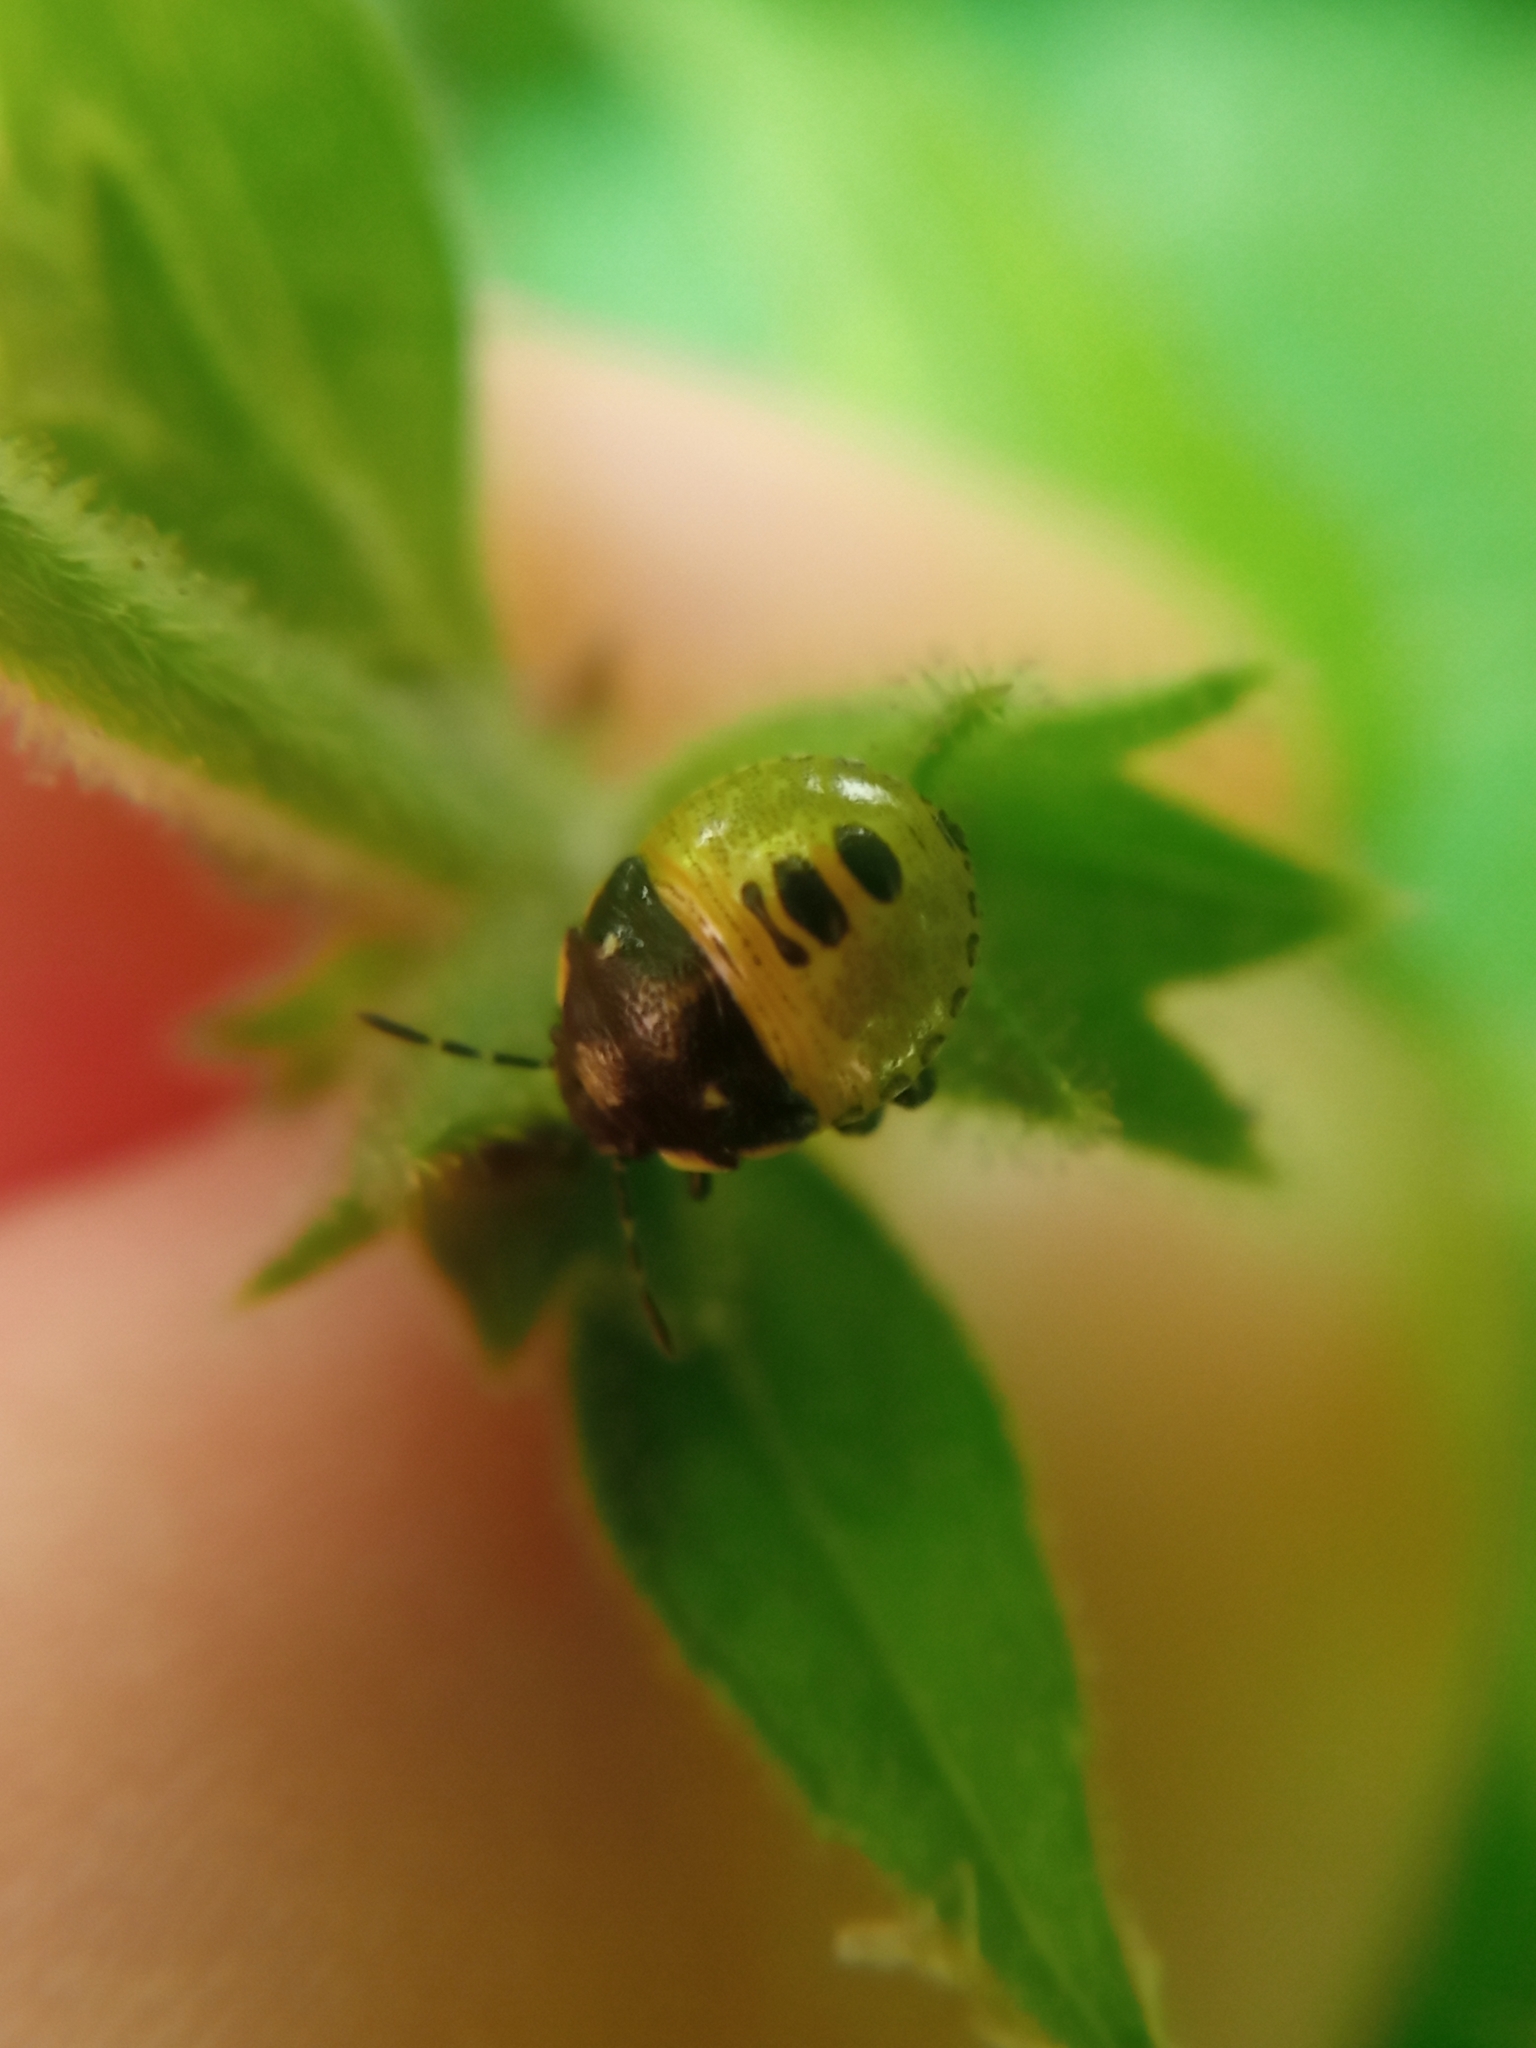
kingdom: Animalia
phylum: Arthropoda
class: Insecta
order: Hemiptera
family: Pentatomidae
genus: Eysarcoris
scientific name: Eysarcoris venustissimus
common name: Woundwort shieldbug
